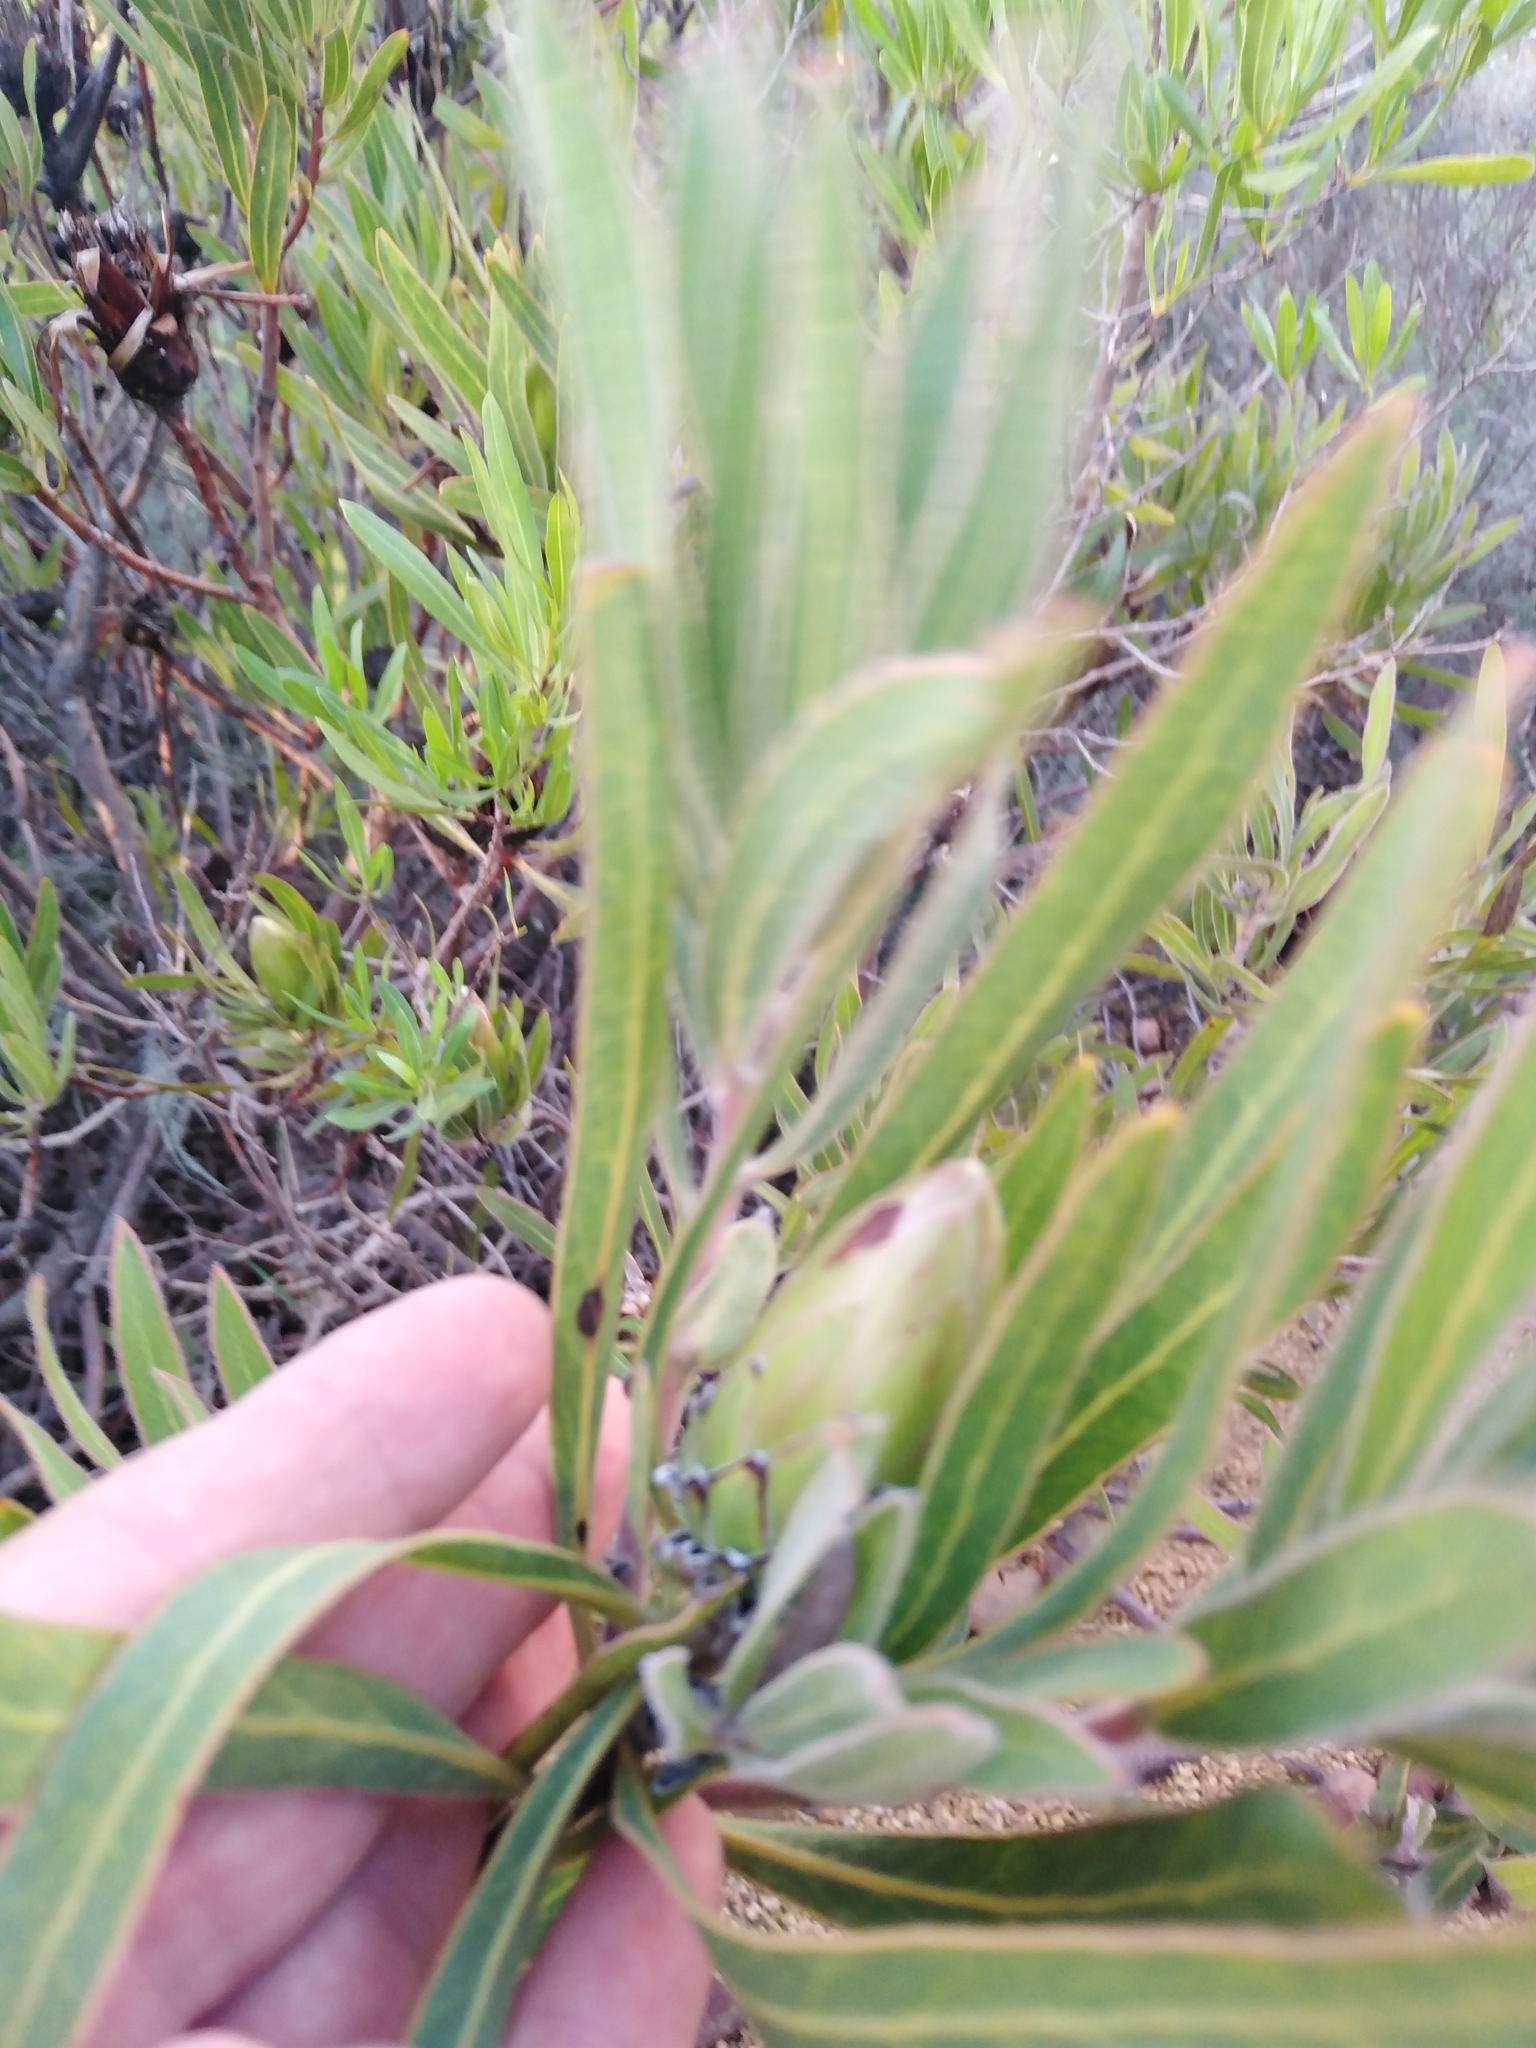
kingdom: Plantae
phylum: Tracheophyta
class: Magnoliopsida
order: Proteales
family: Proteaceae
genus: Protea
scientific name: Protea burchellii
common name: Burchell's sugarbush
